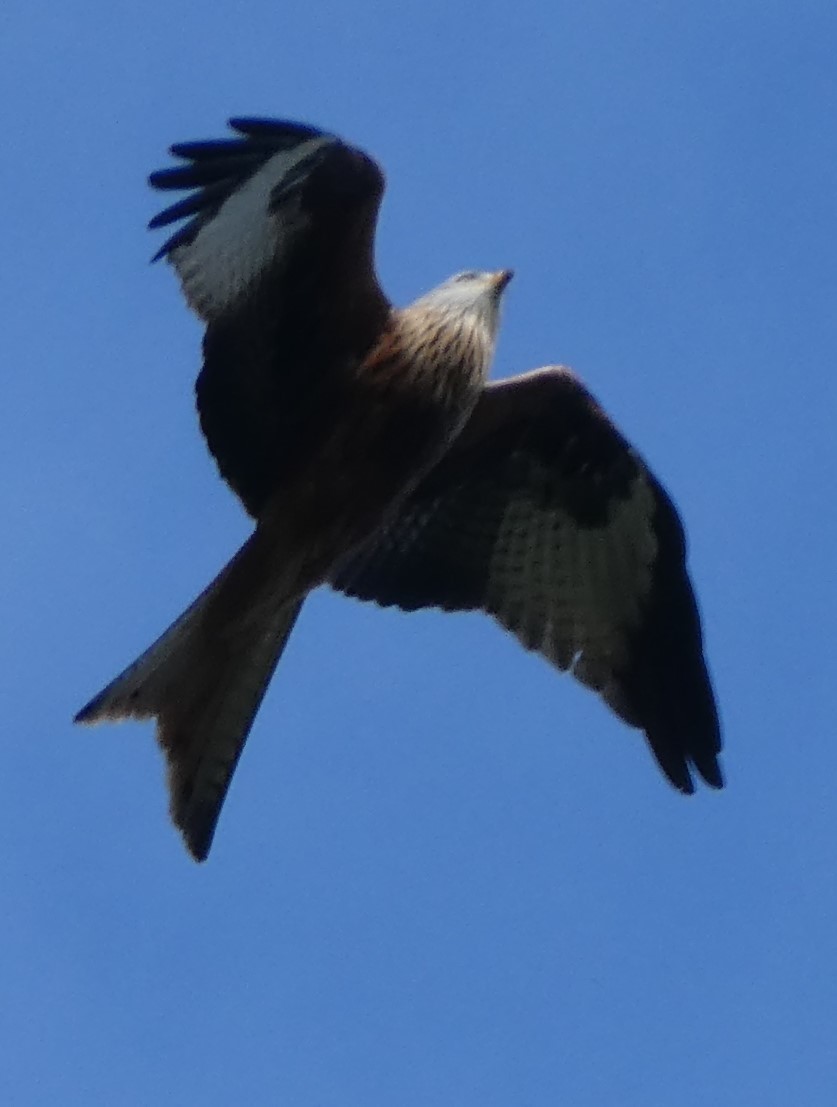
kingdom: Animalia
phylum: Chordata
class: Aves
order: Accipitriformes
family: Accipitridae
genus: Milvus
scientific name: Milvus milvus
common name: Red kite
